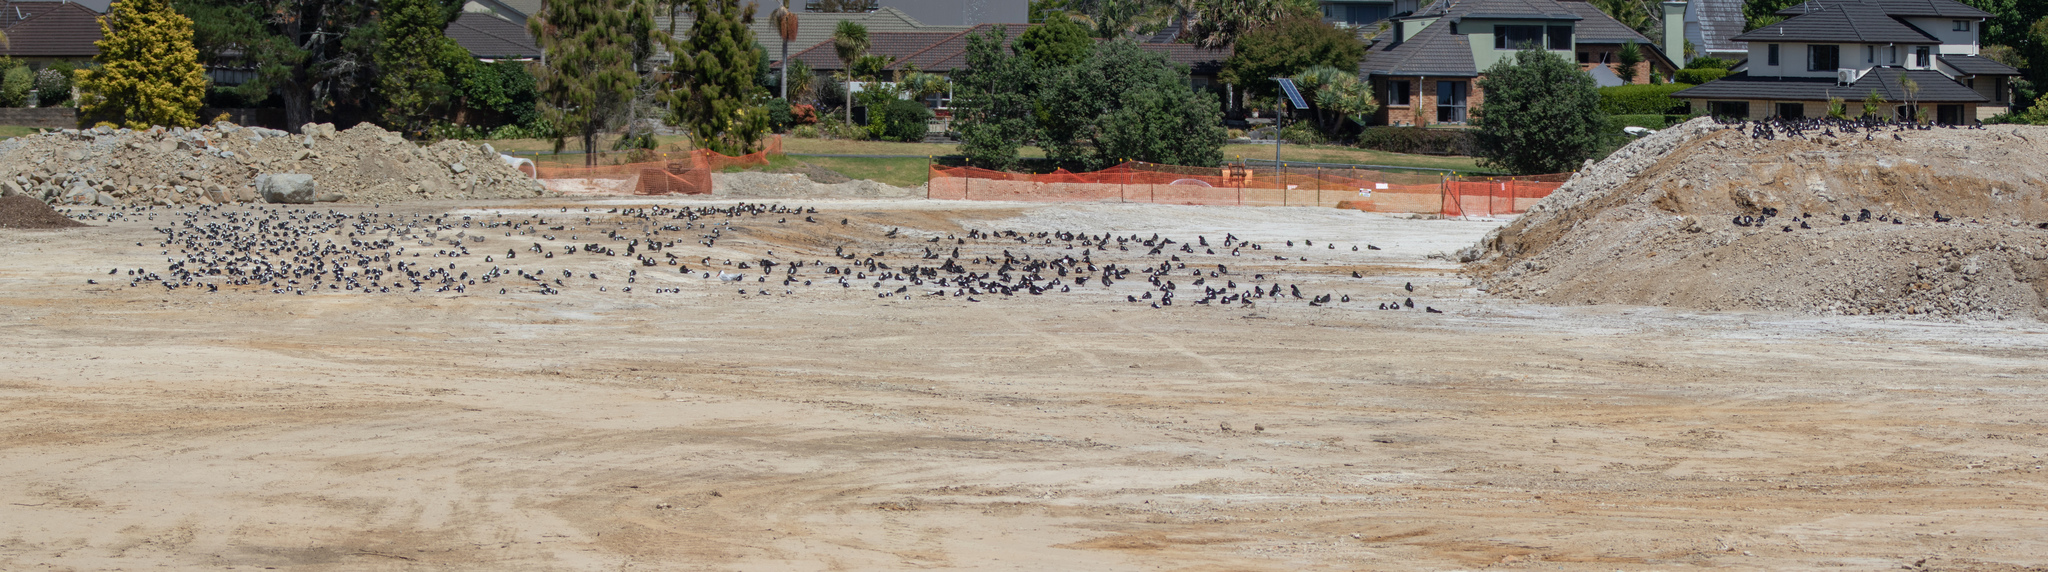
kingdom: Animalia
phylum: Chordata
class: Aves
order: Charadriiformes
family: Scolopacidae
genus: Limosa
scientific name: Limosa lapponica
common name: Bar-tailed godwit
